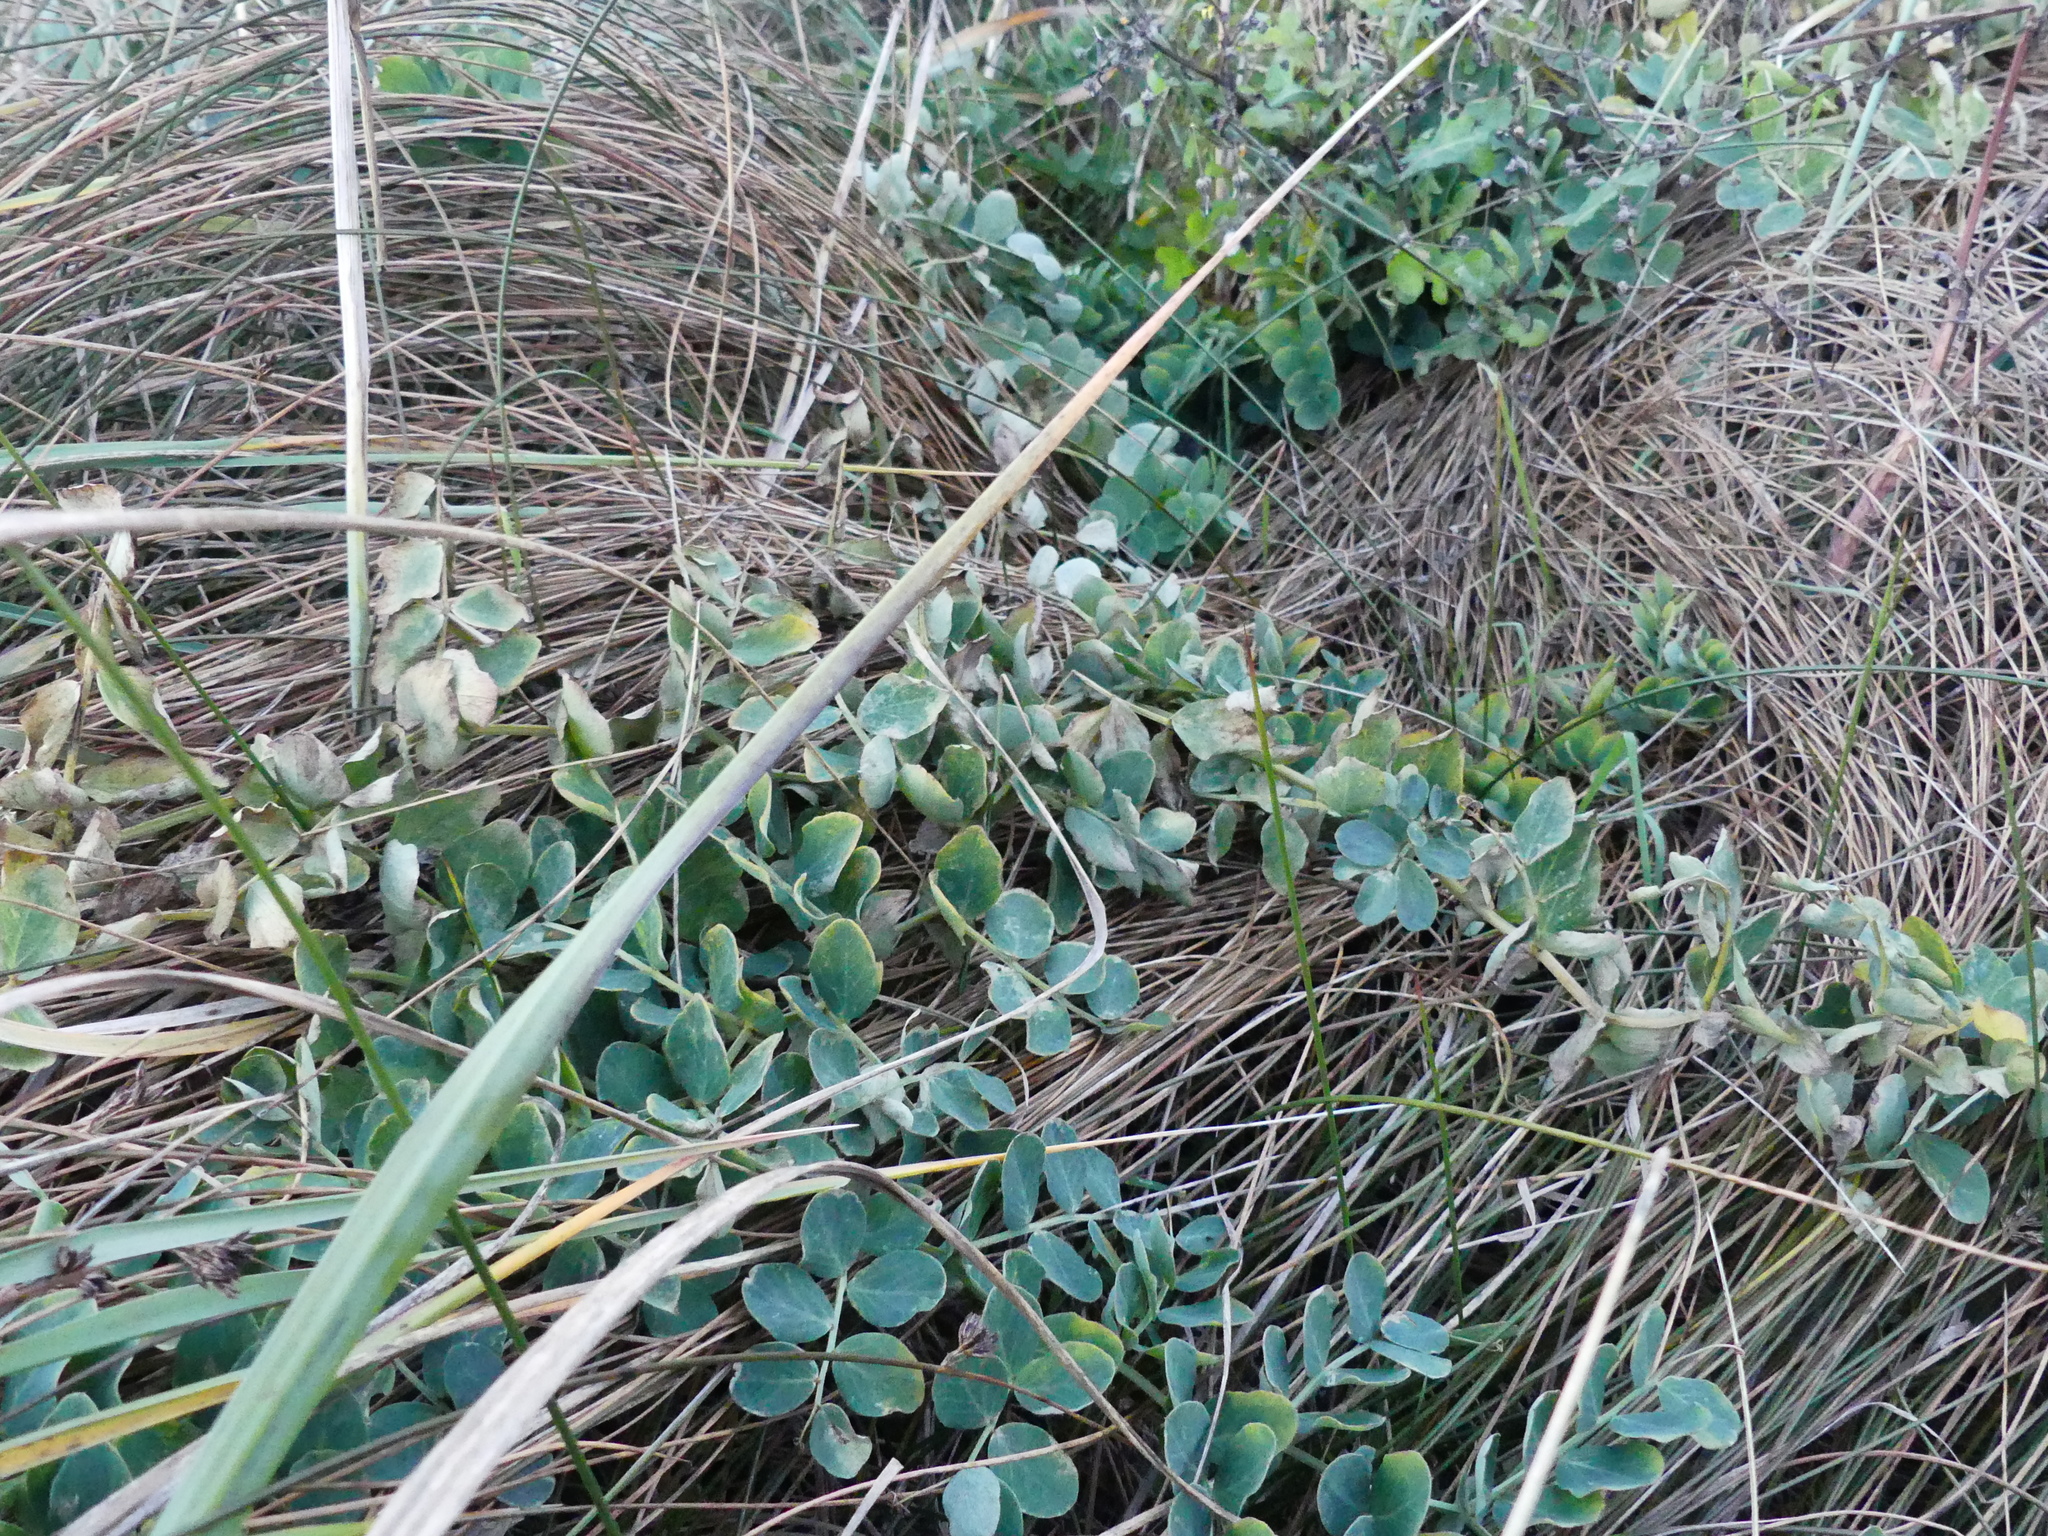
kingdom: Plantae
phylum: Tracheophyta
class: Magnoliopsida
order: Fabales
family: Fabaceae
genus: Lathyrus
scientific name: Lathyrus japonicus
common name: Sea pea
